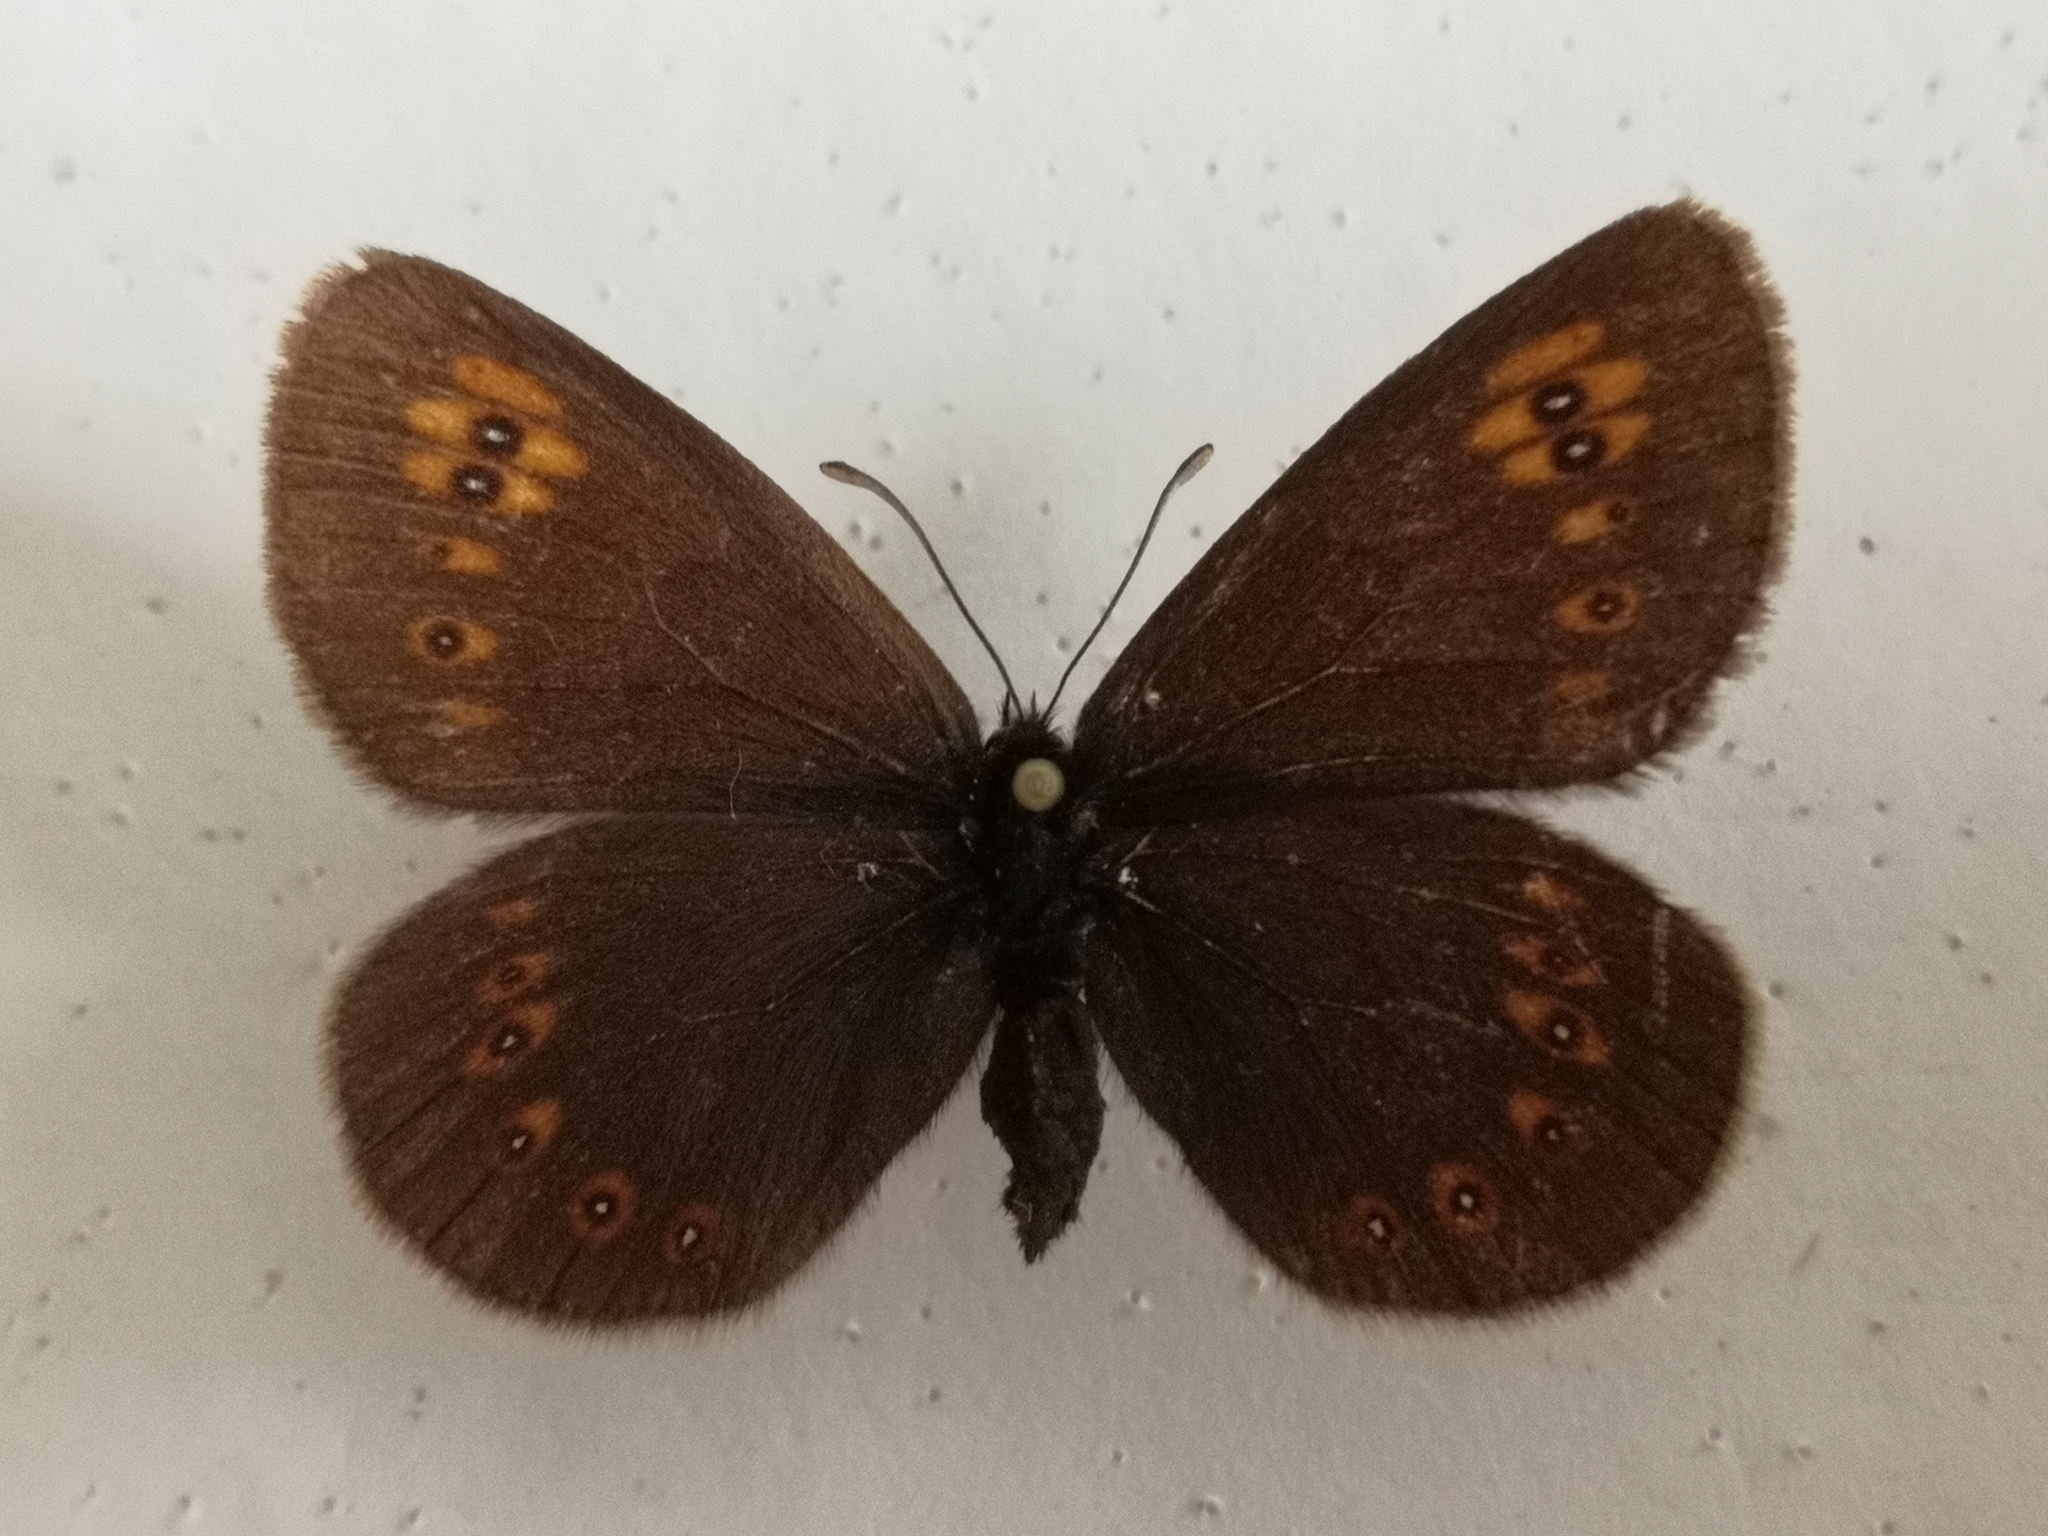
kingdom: Animalia
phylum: Arthropoda
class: Insecta
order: Lepidoptera
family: Nymphalidae
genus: Erebia
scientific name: Erebia alberganus
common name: Almond-eyed ringlet
